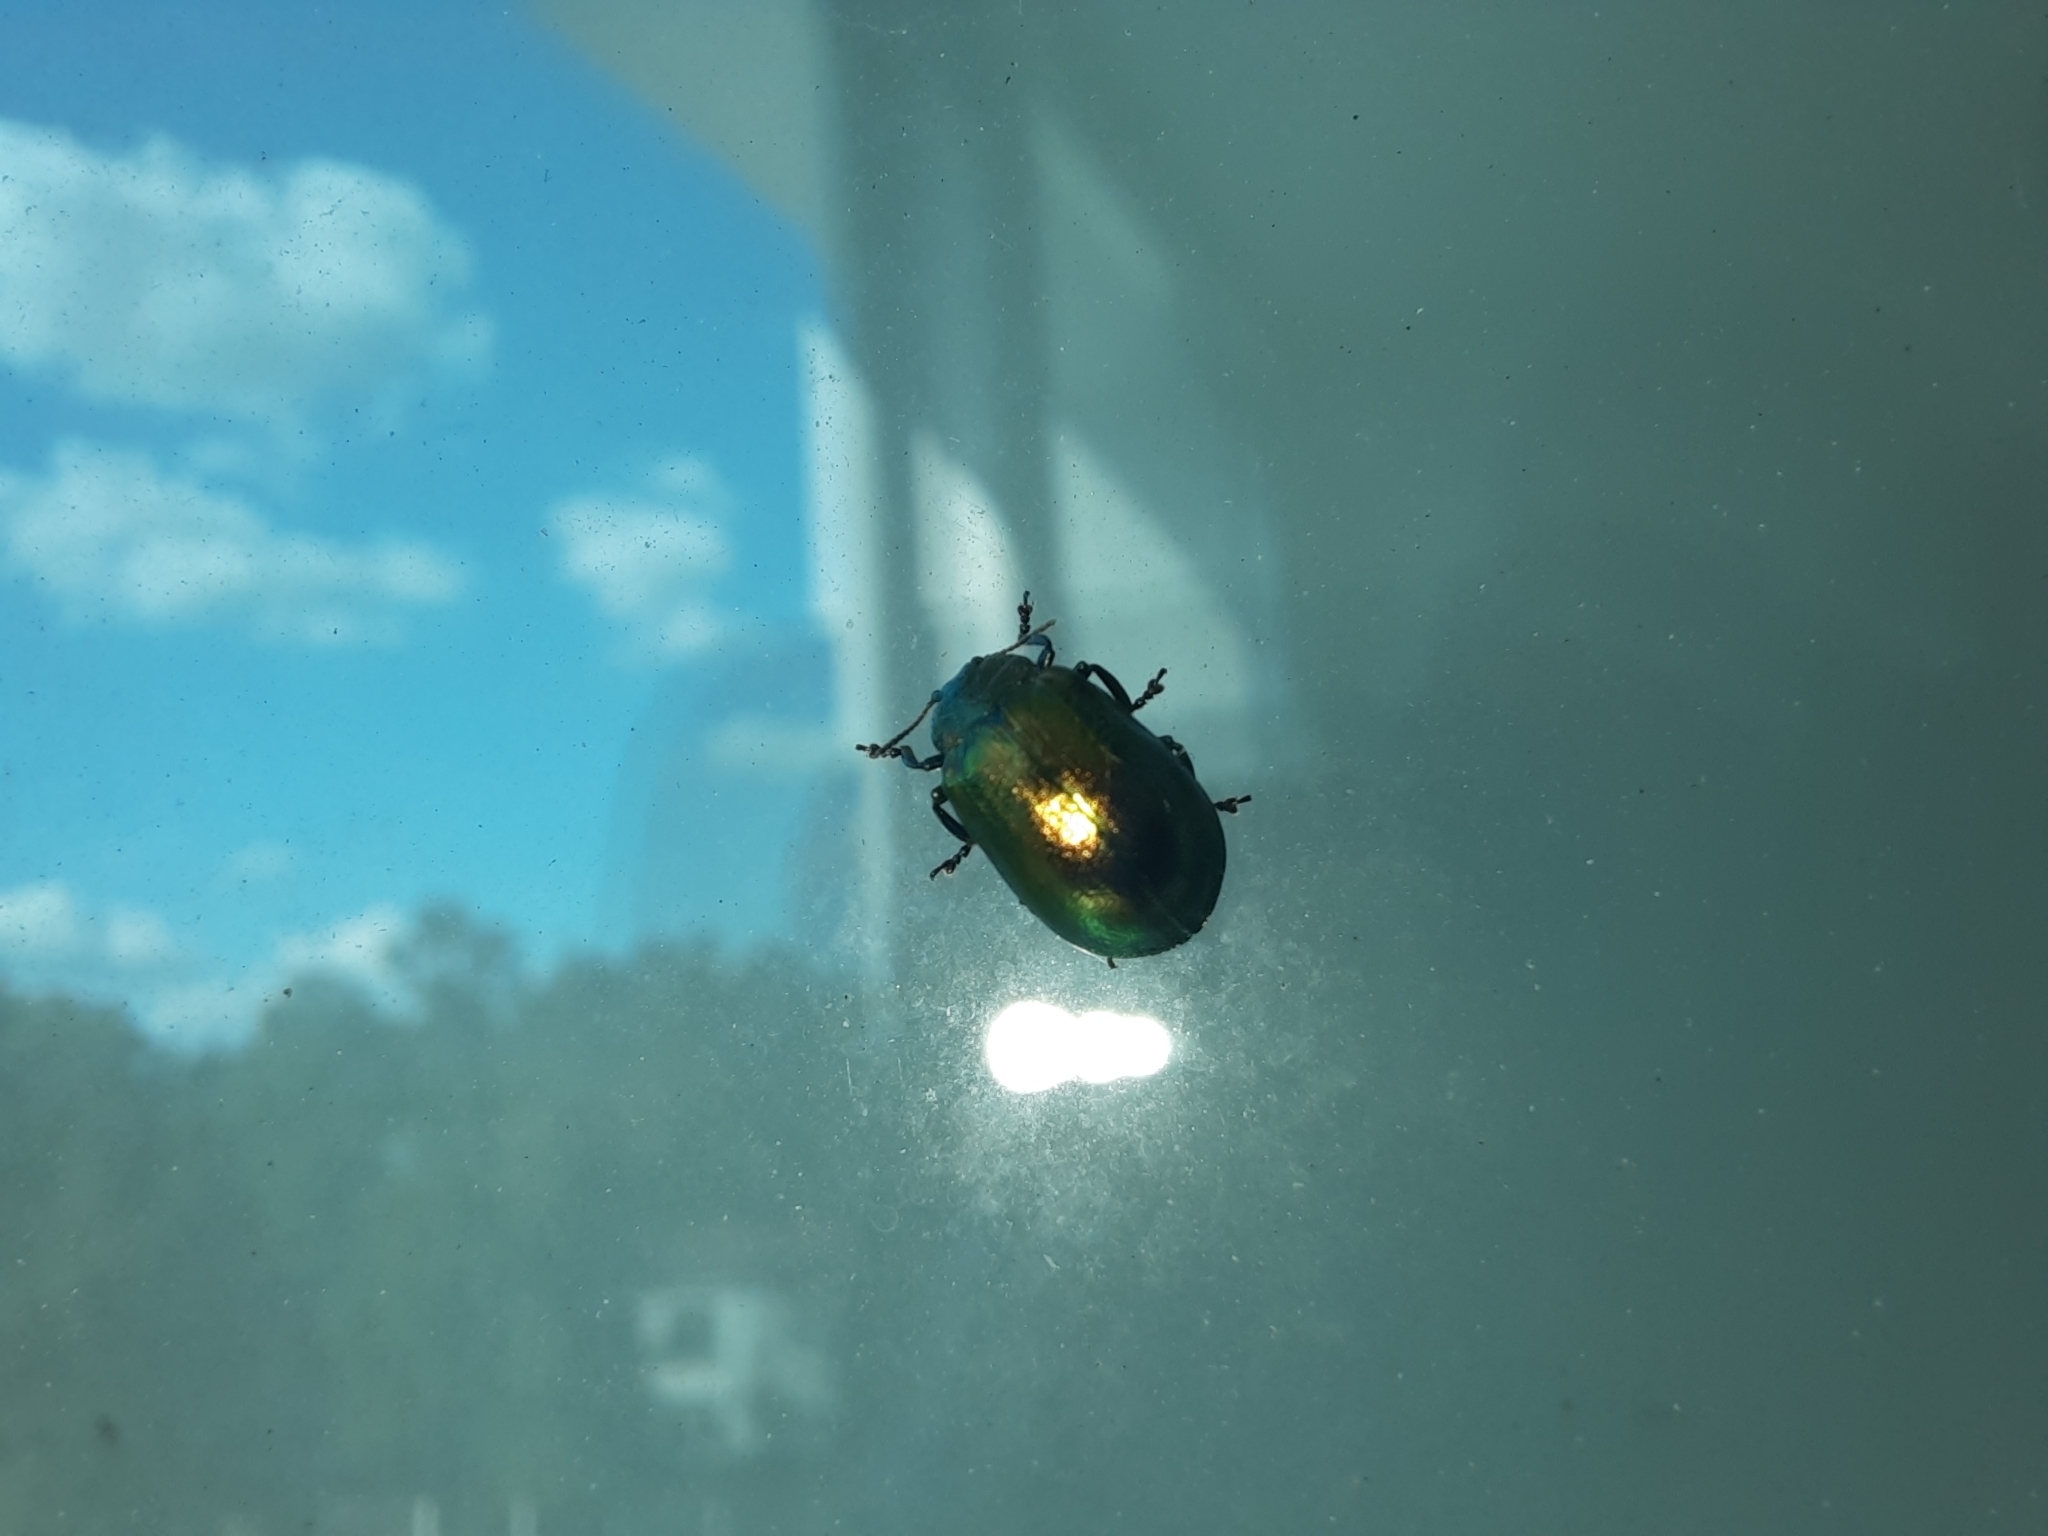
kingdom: Animalia
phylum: Arthropoda
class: Insecta
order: Coleoptera
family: Chrysomelidae
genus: Plagiosterna
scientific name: Plagiosterna aenea
